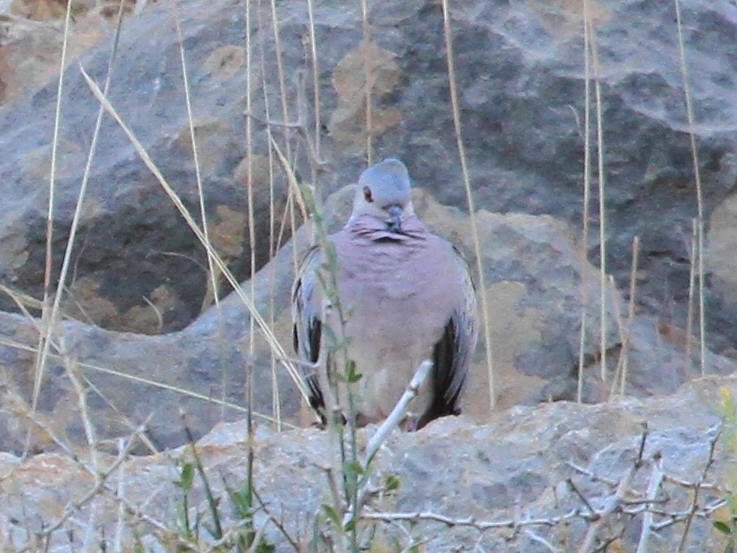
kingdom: Animalia
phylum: Chordata
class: Aves
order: Columbiformes
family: Columbidae
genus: Streptopelia
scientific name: Streptopelia turtur
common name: European turtle dove
